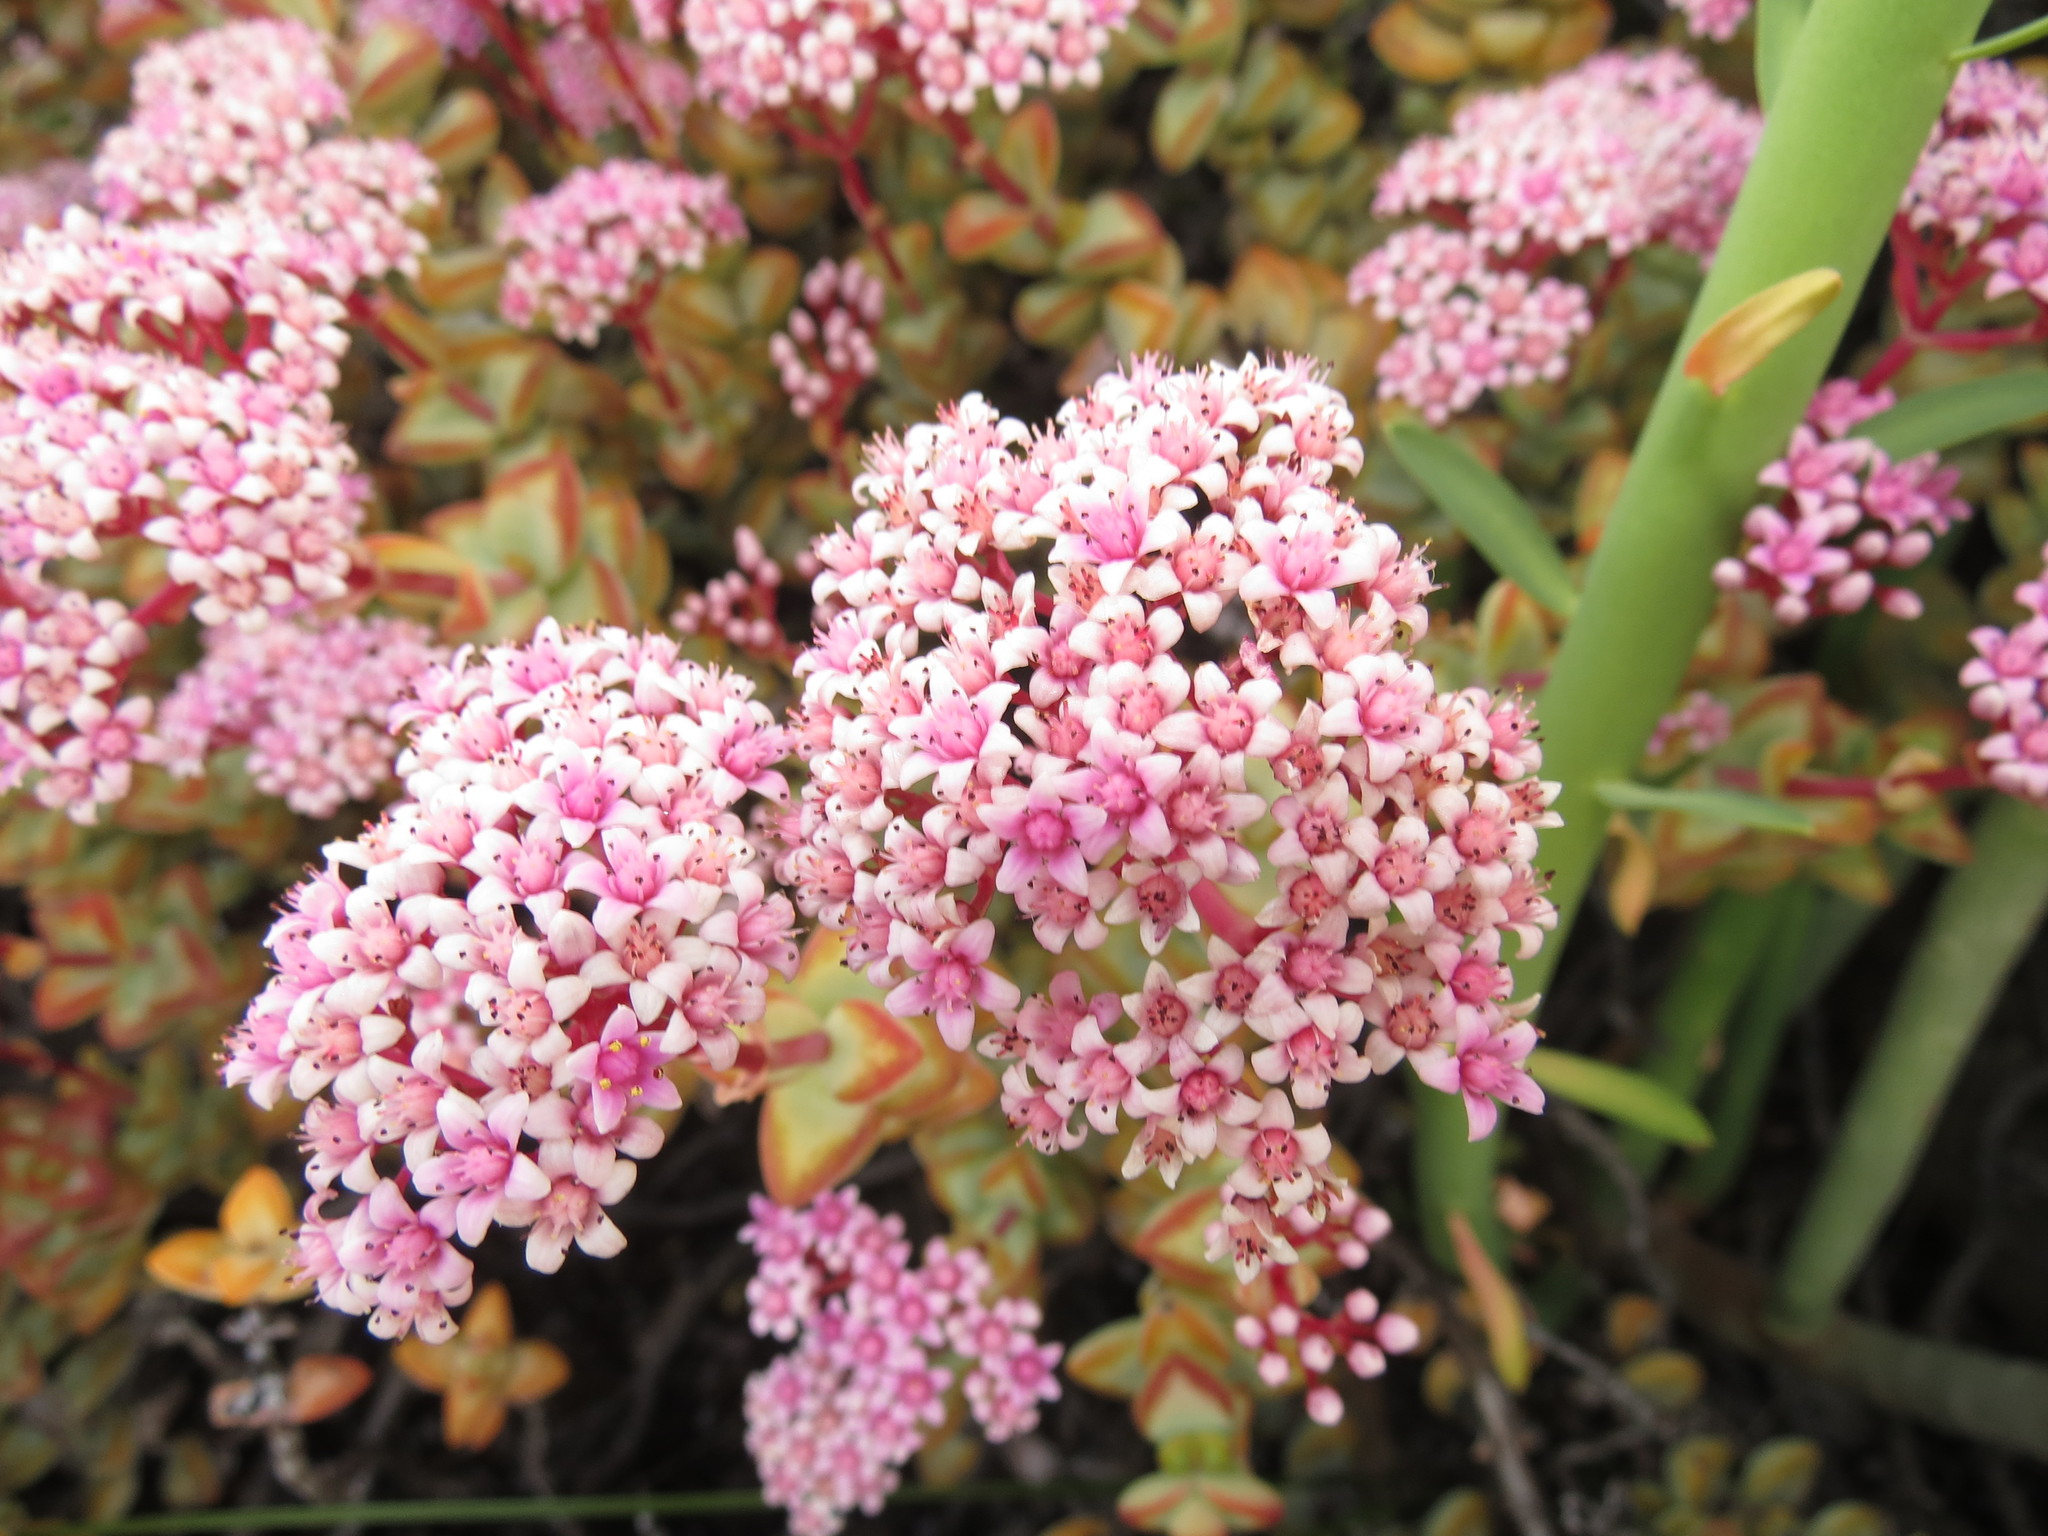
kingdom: Plantae
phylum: Tracheophyta
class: Magnoliopsida
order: Saxifragales
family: Crassulaceae
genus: Crassula
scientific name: Crassula rupestris
